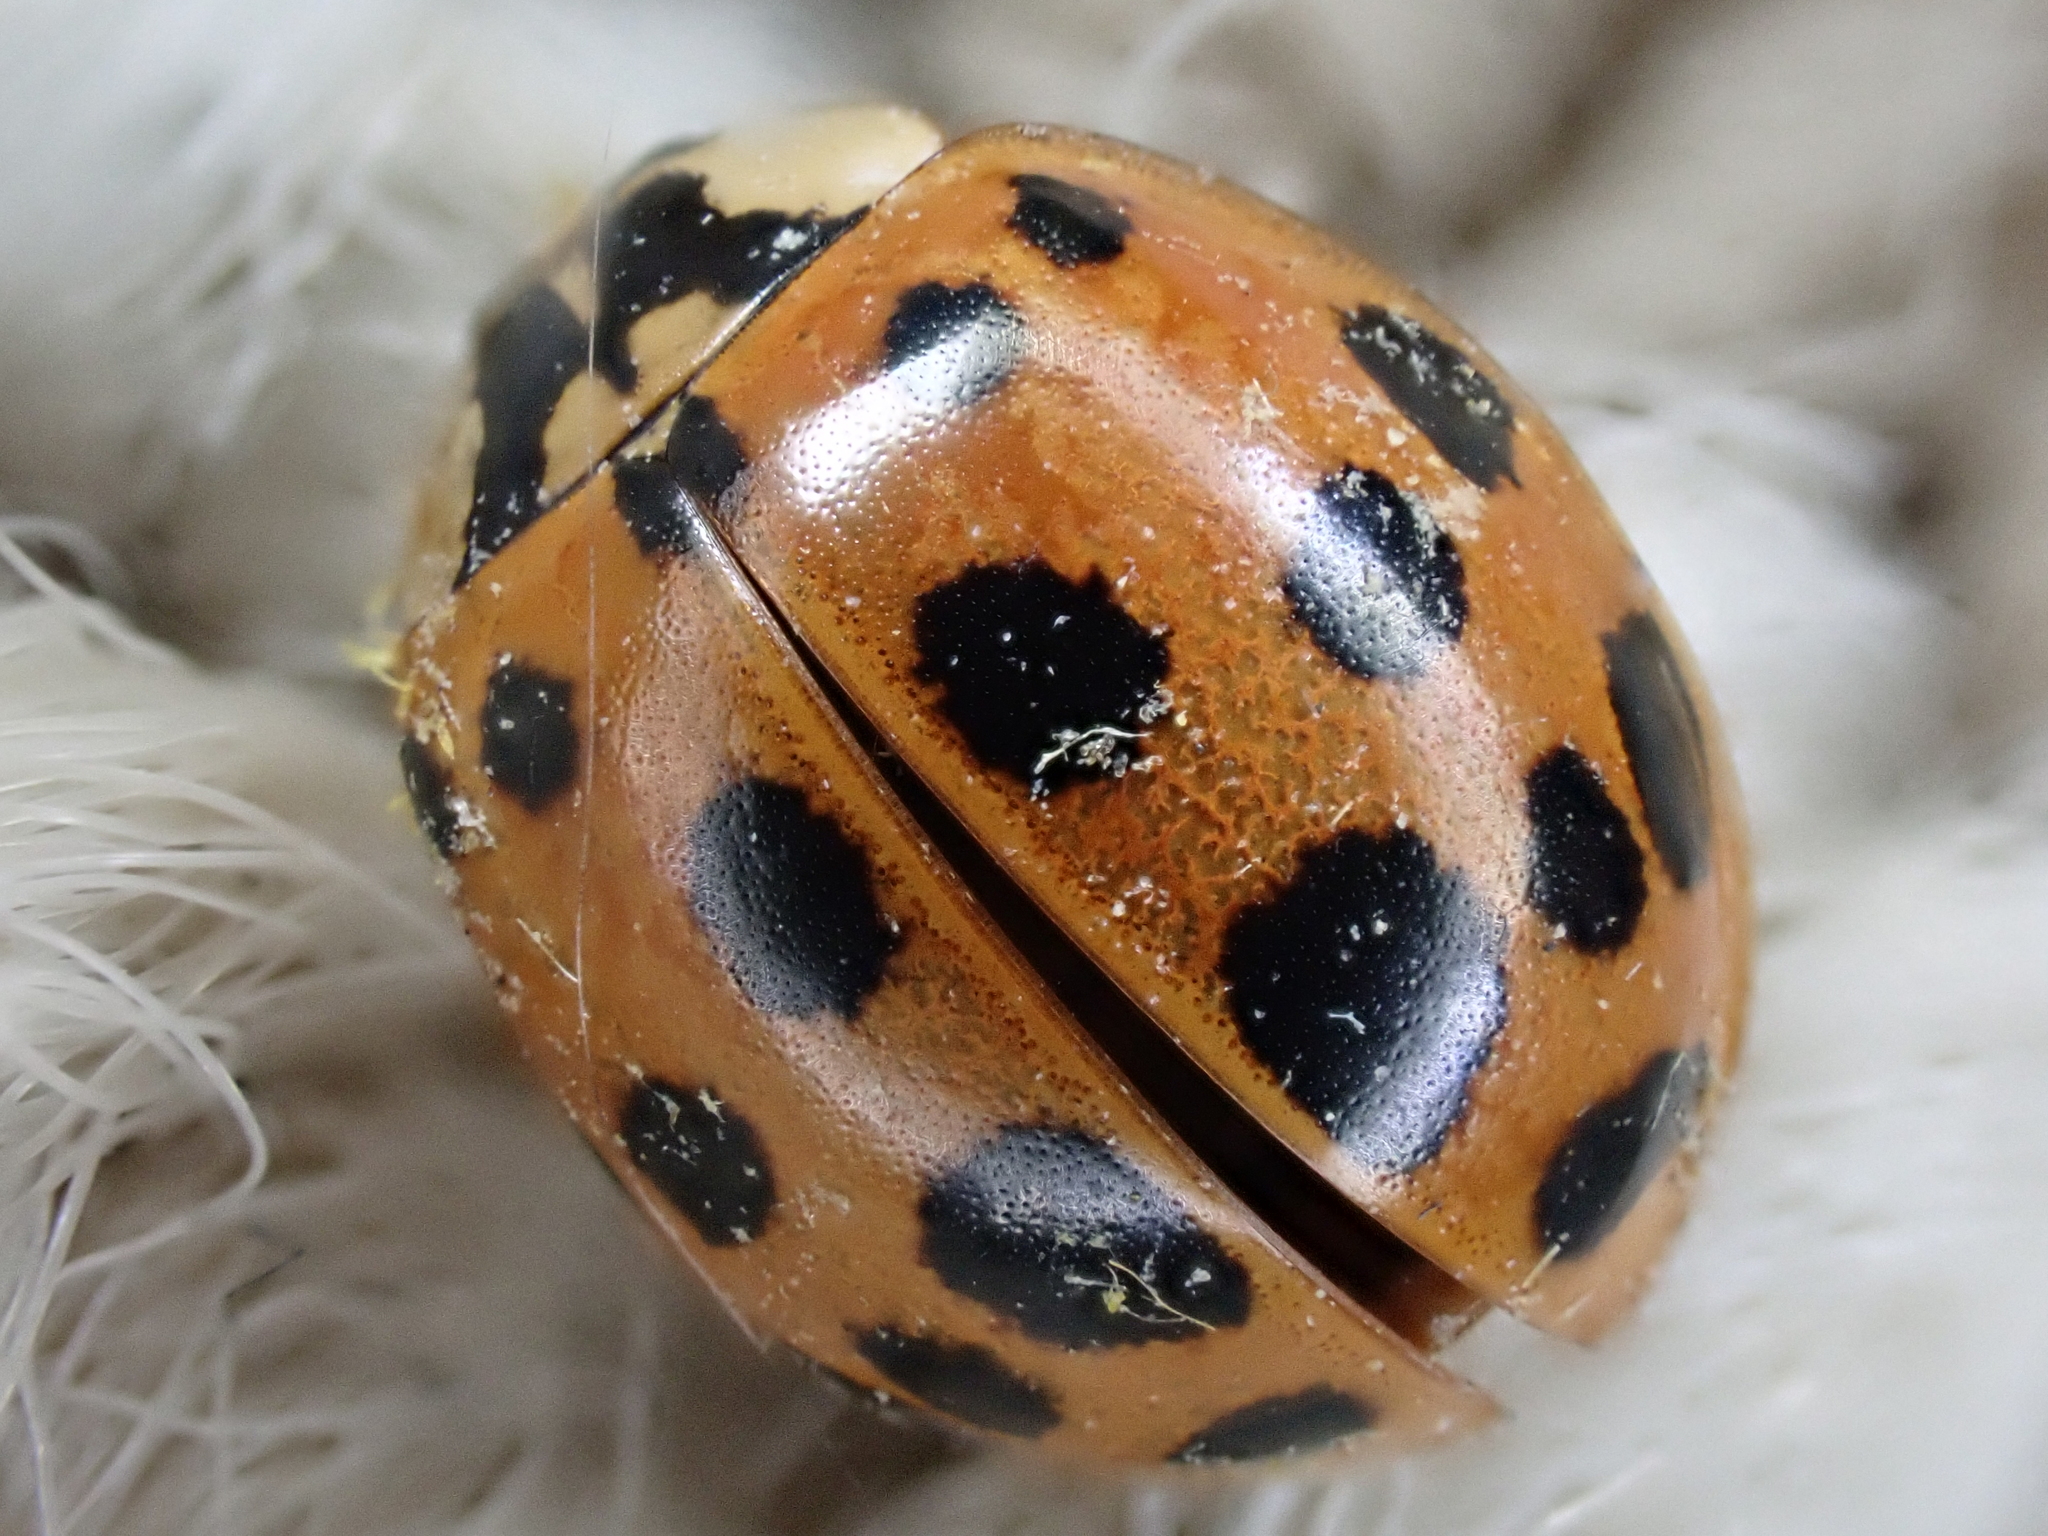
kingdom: Animalia
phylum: Arthropoda
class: Insecta
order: Coleoptera
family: Coccinellidae
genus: Harmonia
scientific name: Harmonia axyridis
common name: Harlequin ladybird
